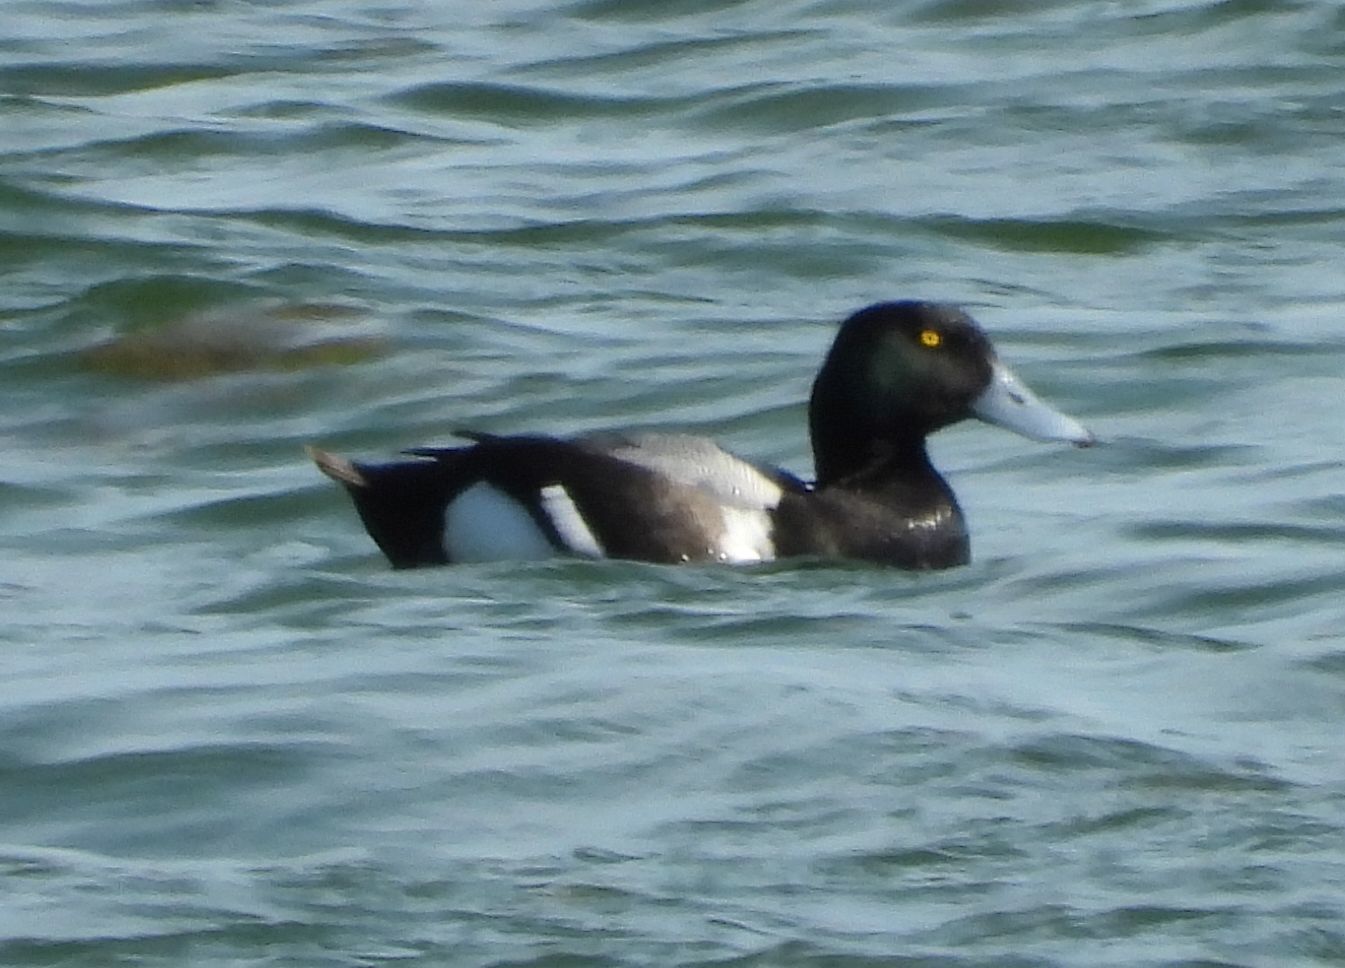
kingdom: Animalia
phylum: Chordata
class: Aves
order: Anseriformes
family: Anatidae
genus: Aythya
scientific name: Aythya marila
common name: Greater scaup
